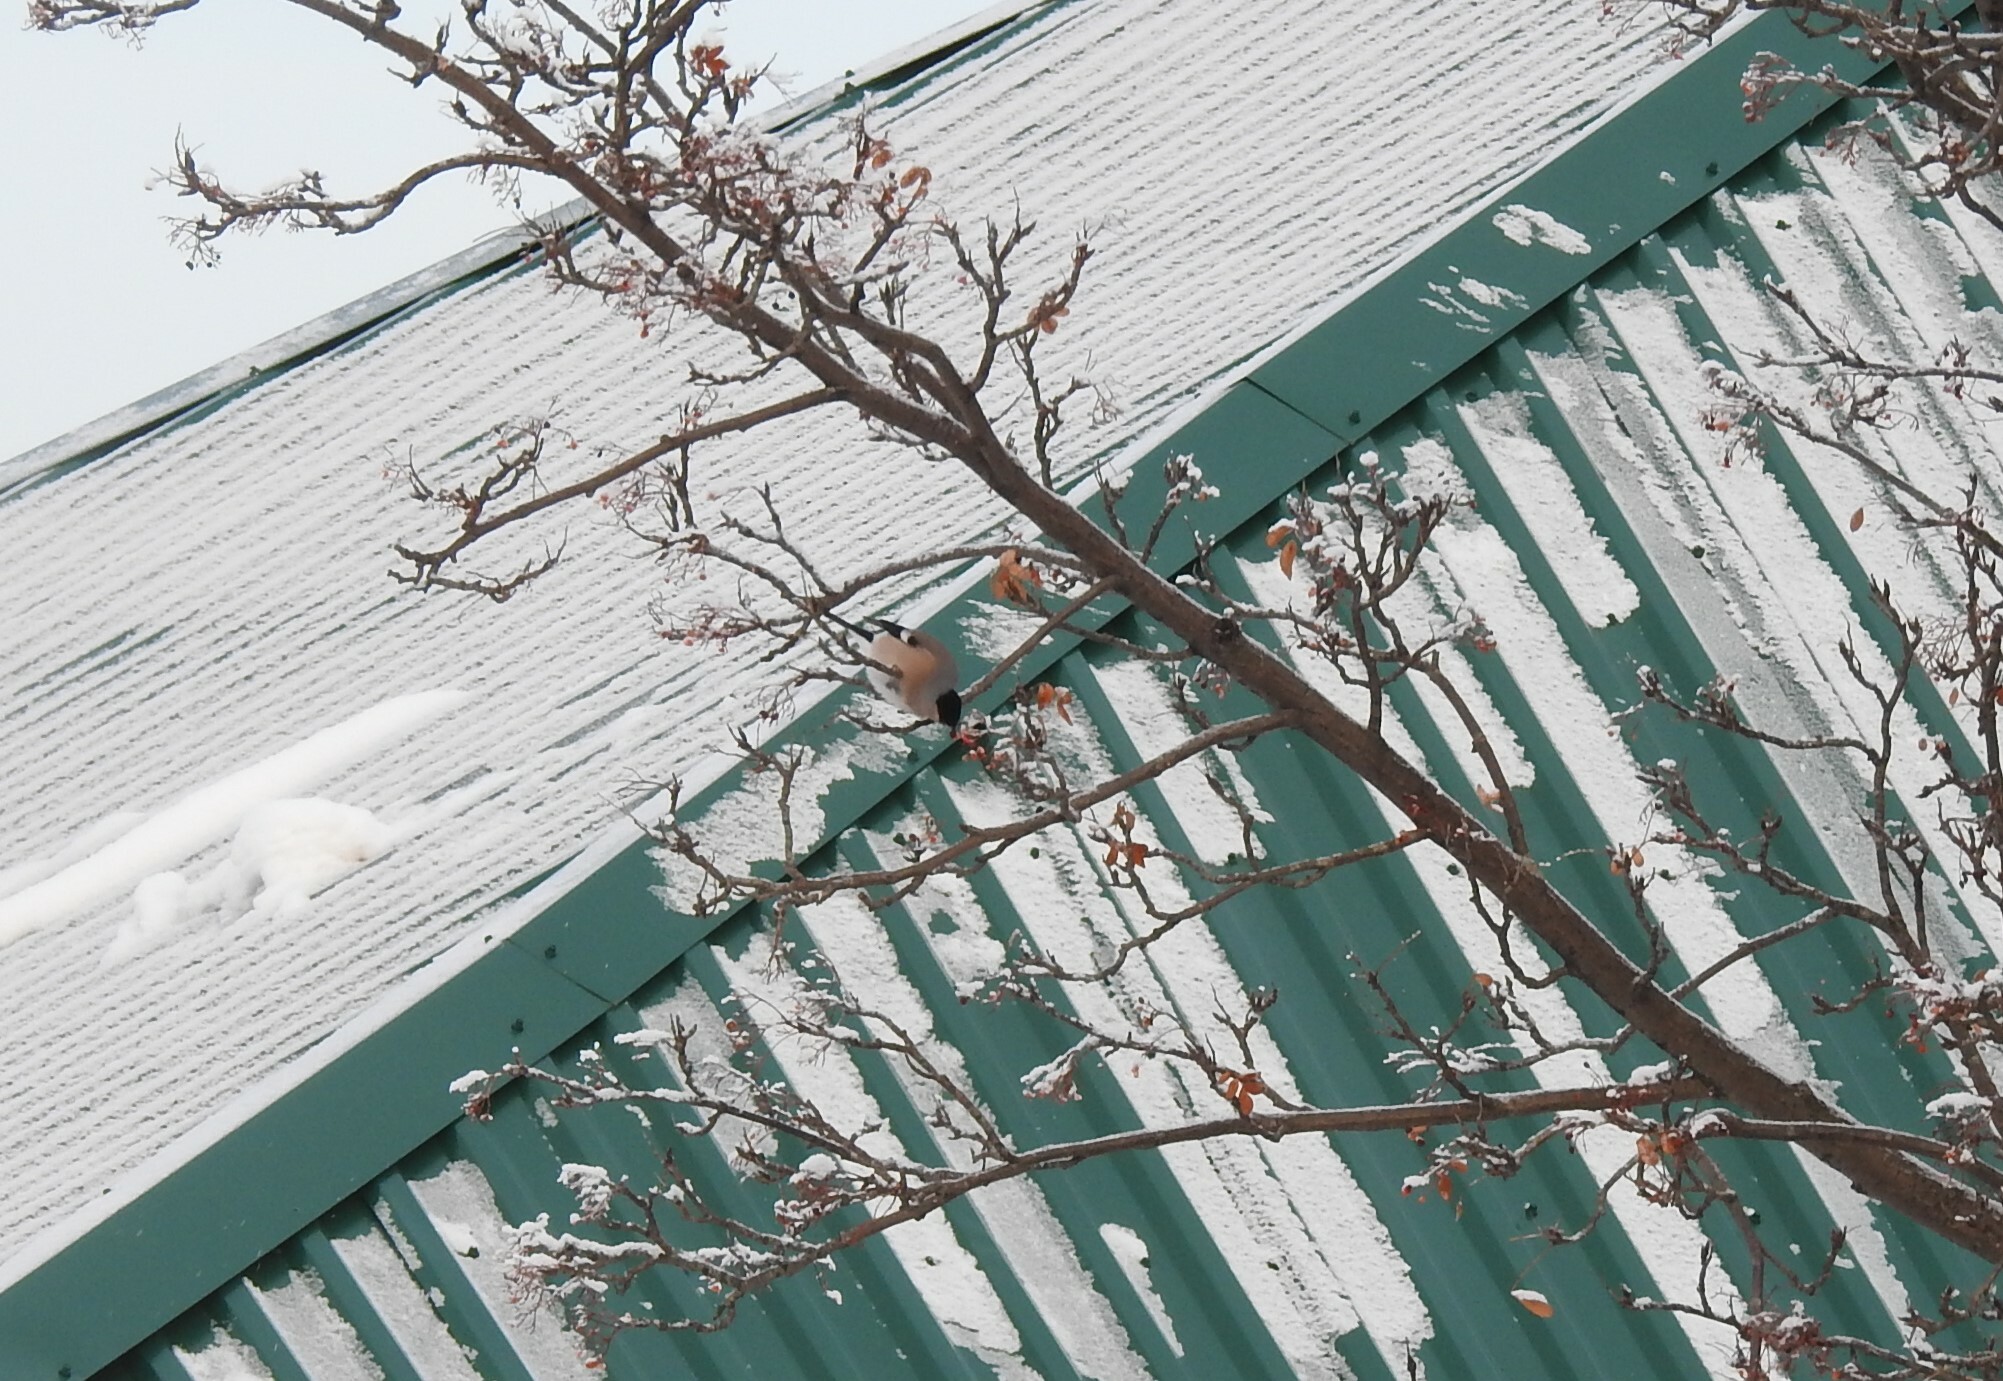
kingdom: Animalia
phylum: Chordata
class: Aves
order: Passeriformes
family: Fringillidae
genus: Pyrrhula
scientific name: Pyrrhula pyrrhula
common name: Eurasian bullfinch
